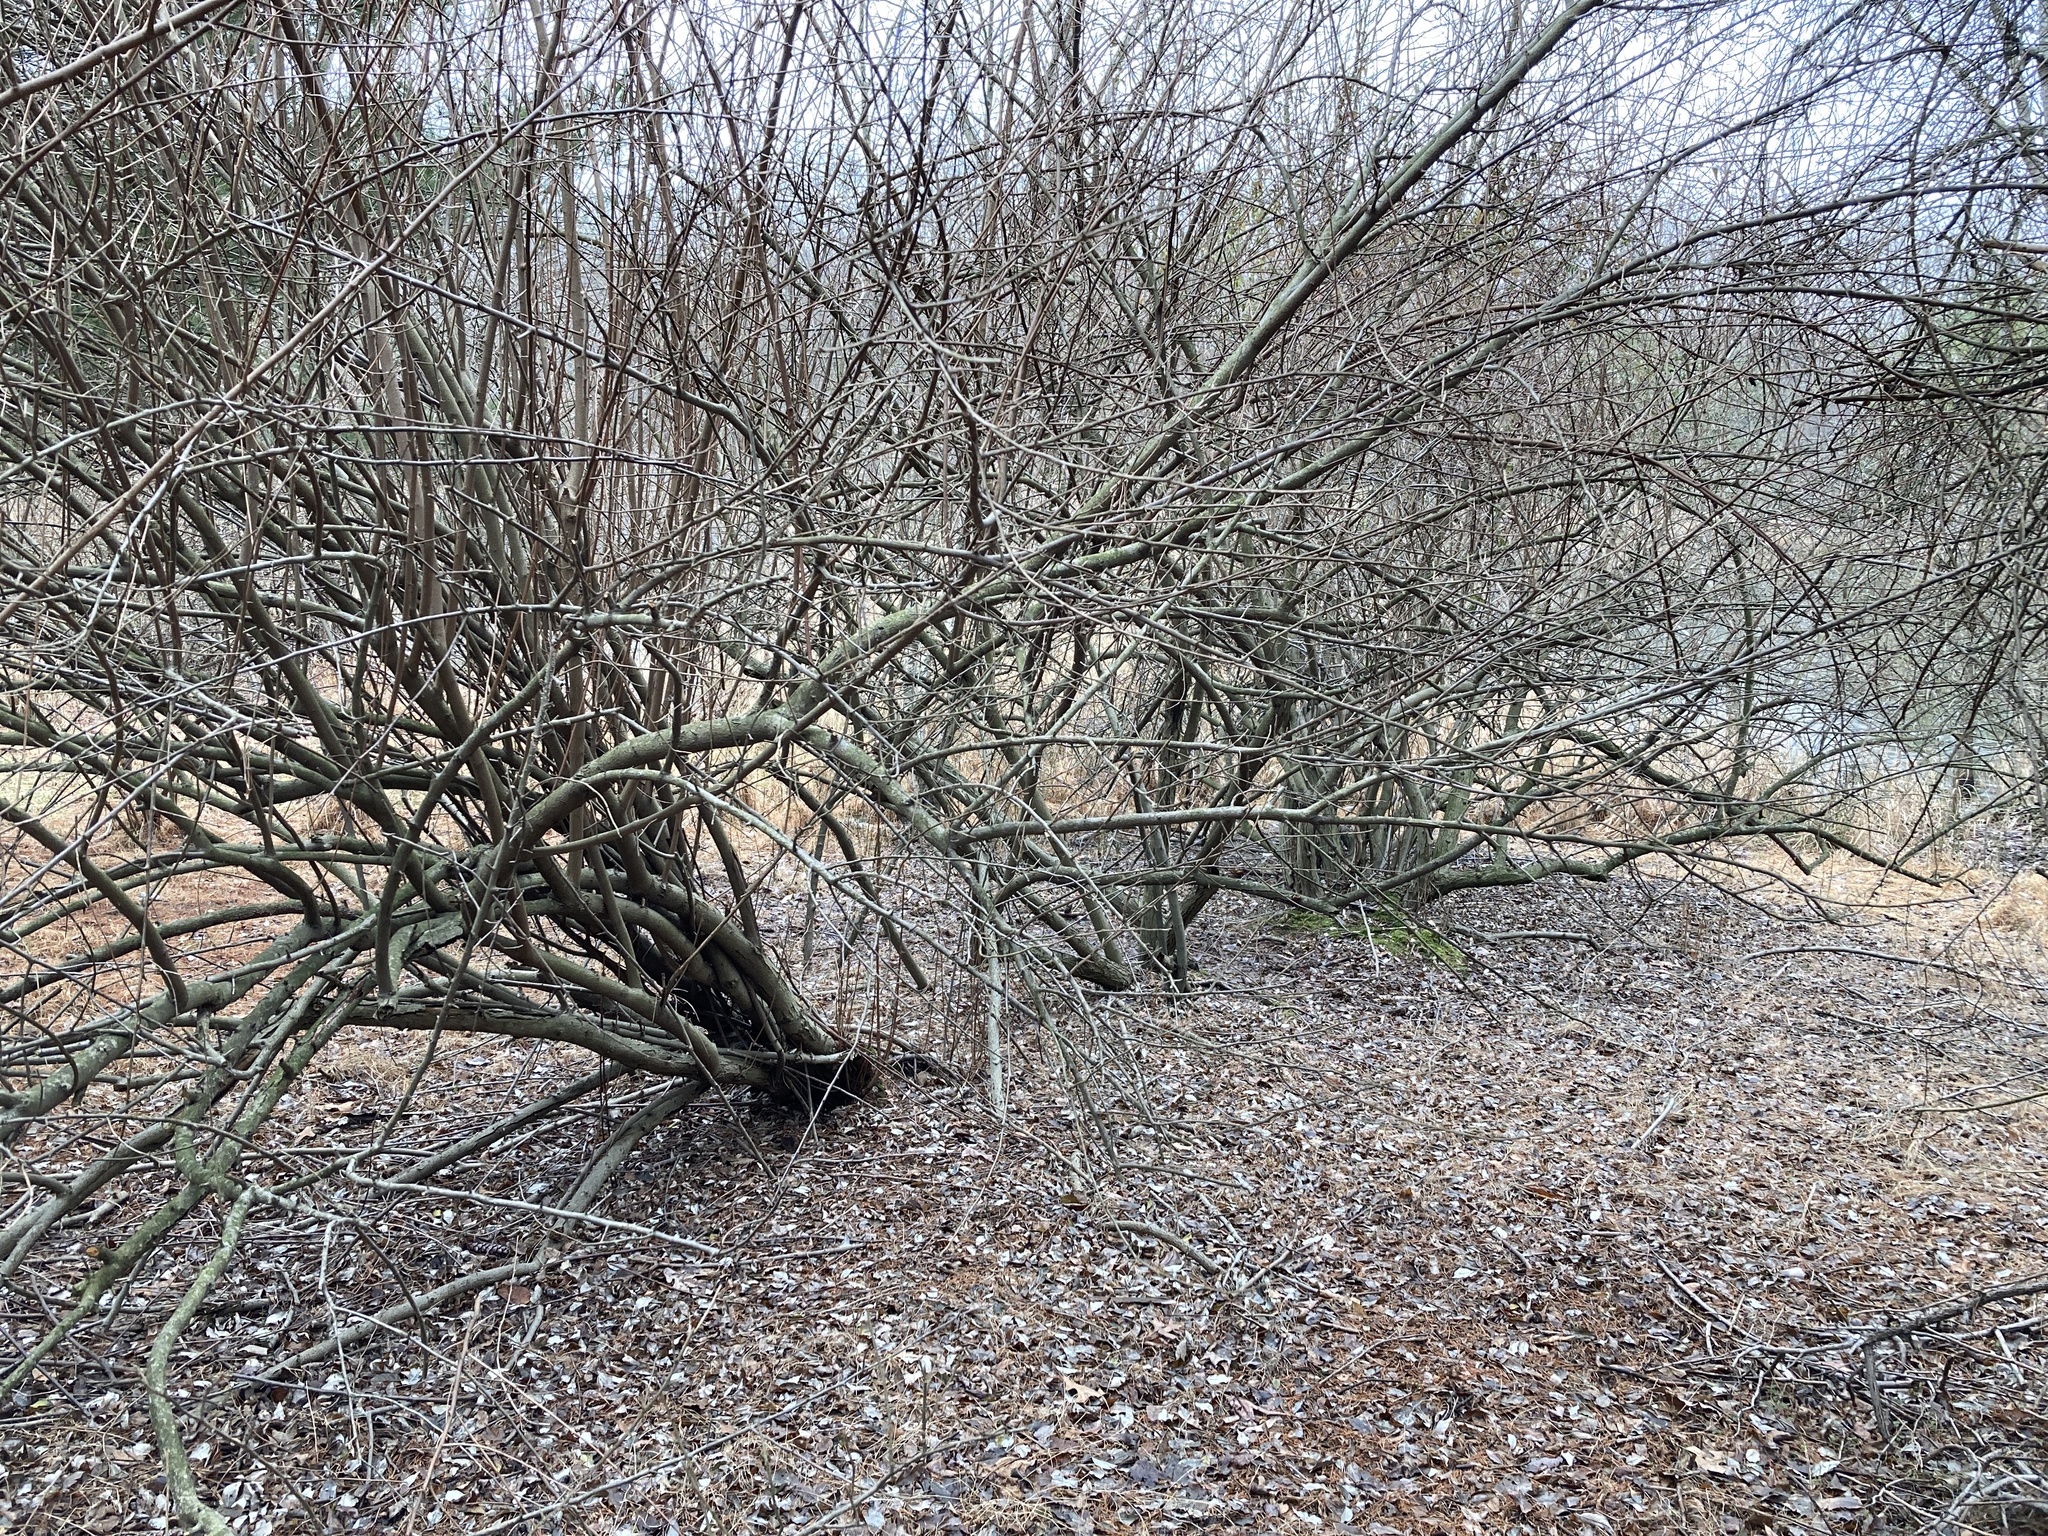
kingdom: Plantae
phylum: Tracheophyta
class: Magnoliopsida
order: Rosales
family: Elaeagnaceae
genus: Elaeagnus
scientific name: Elaeagnus umbellata
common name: Autumn olive
